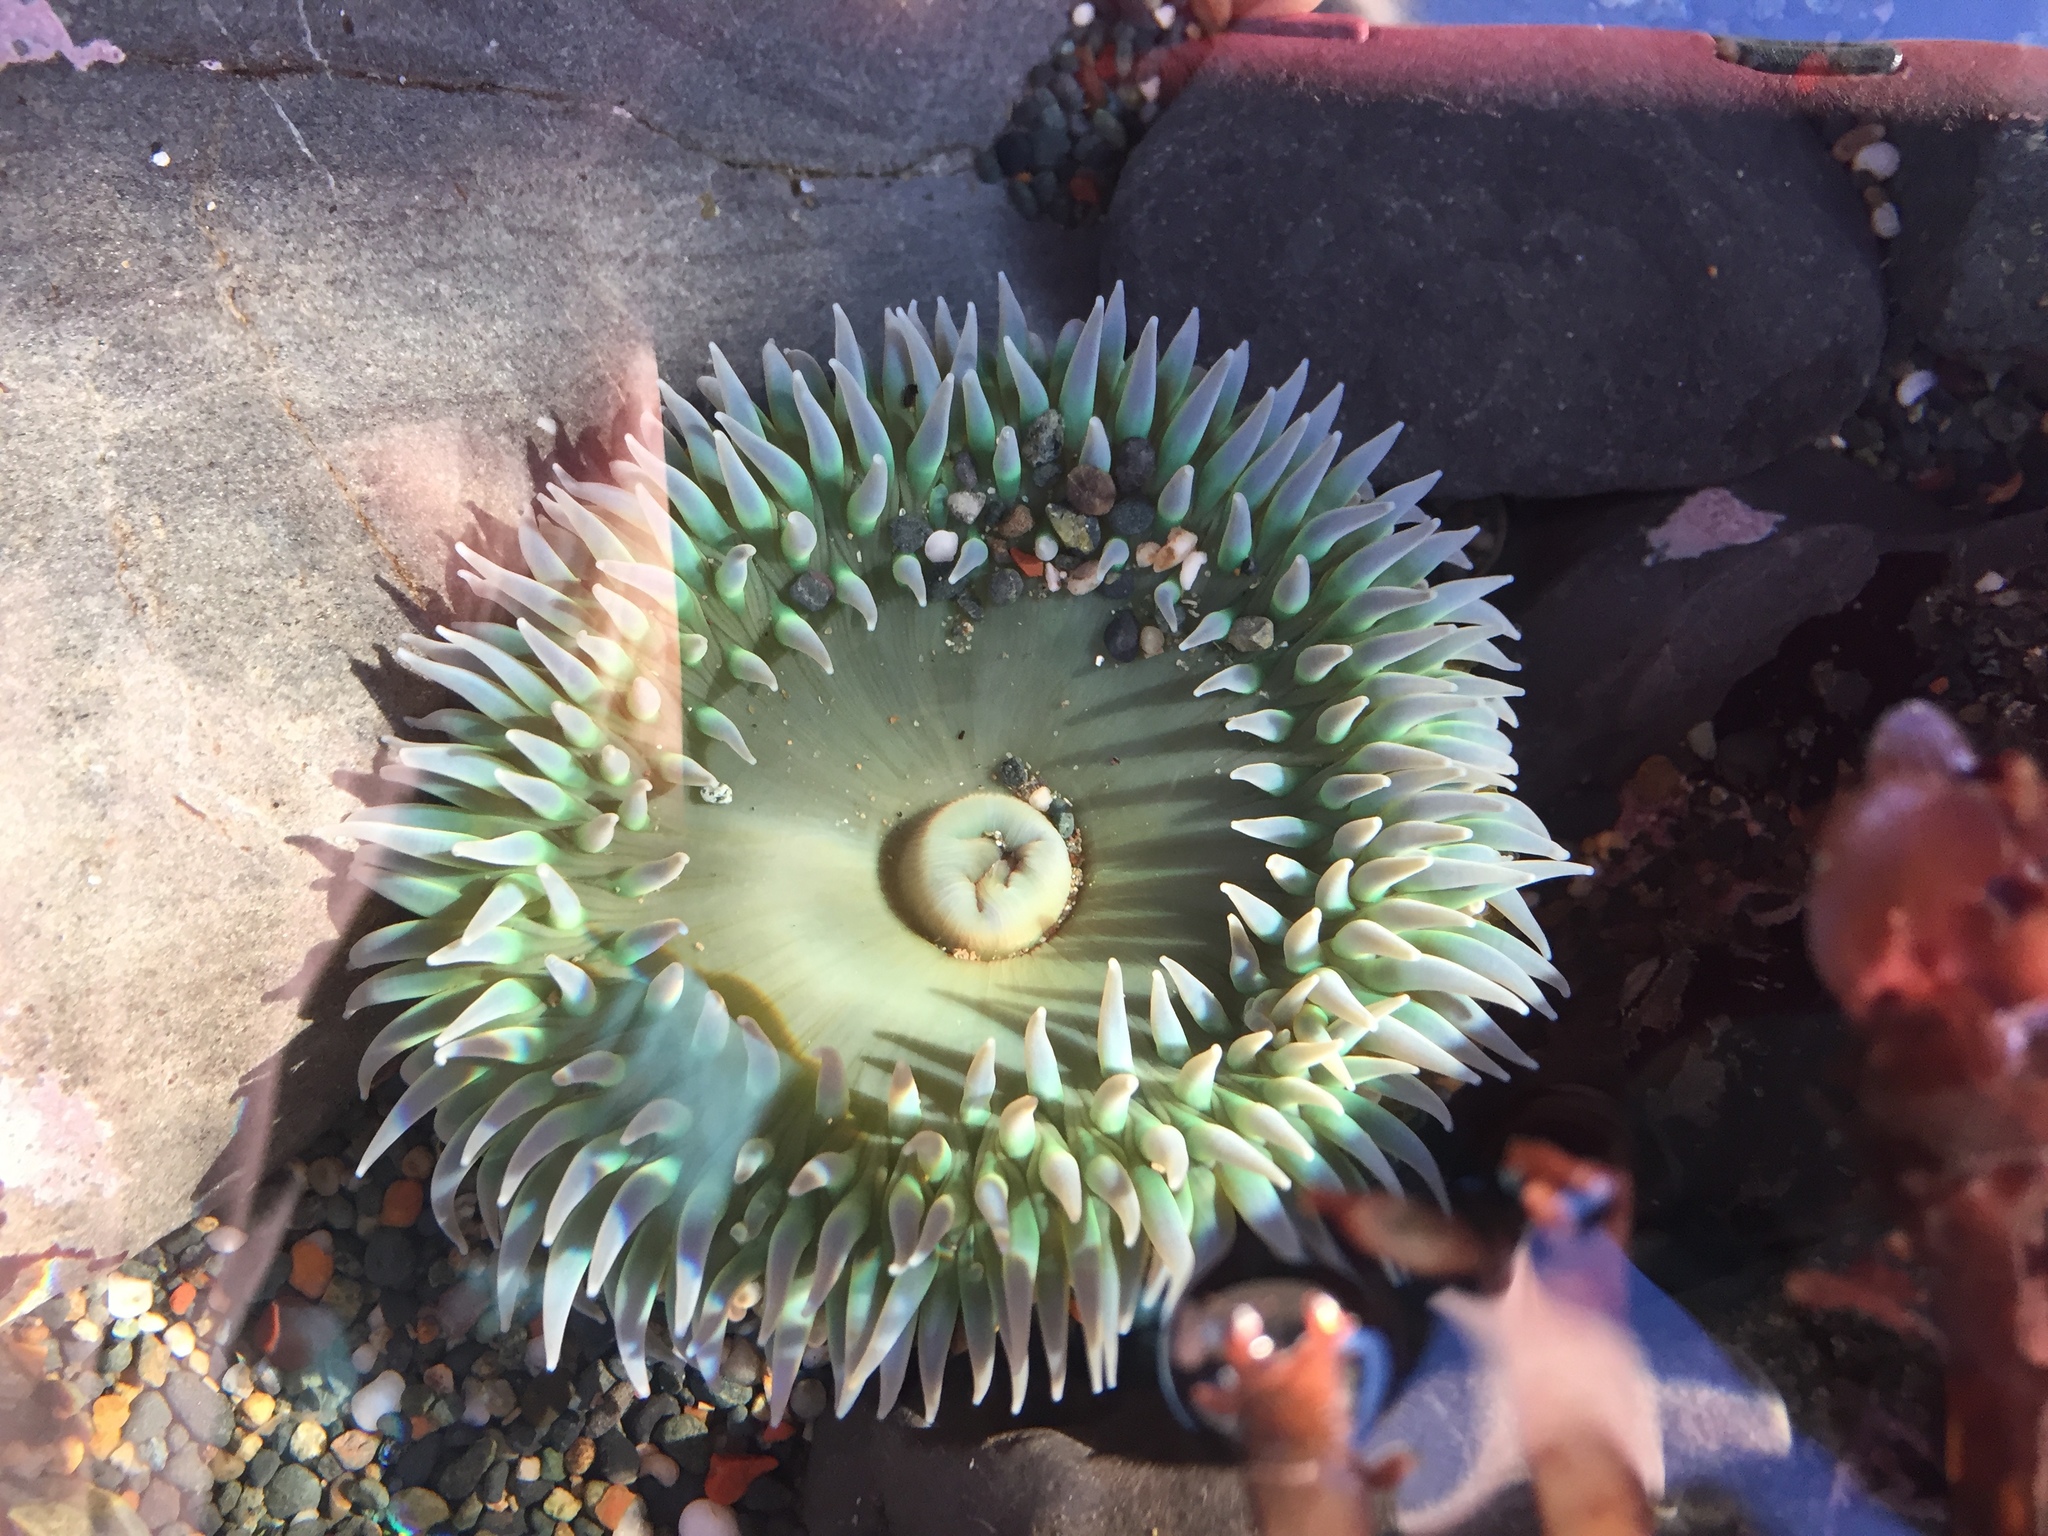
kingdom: Animalia
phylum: Cnidaria
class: Anthozoa
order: Actiniaria
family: Actiniidae
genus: Anthopleura
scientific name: Anthopleura xanthogrammica
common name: Giant green anemone
